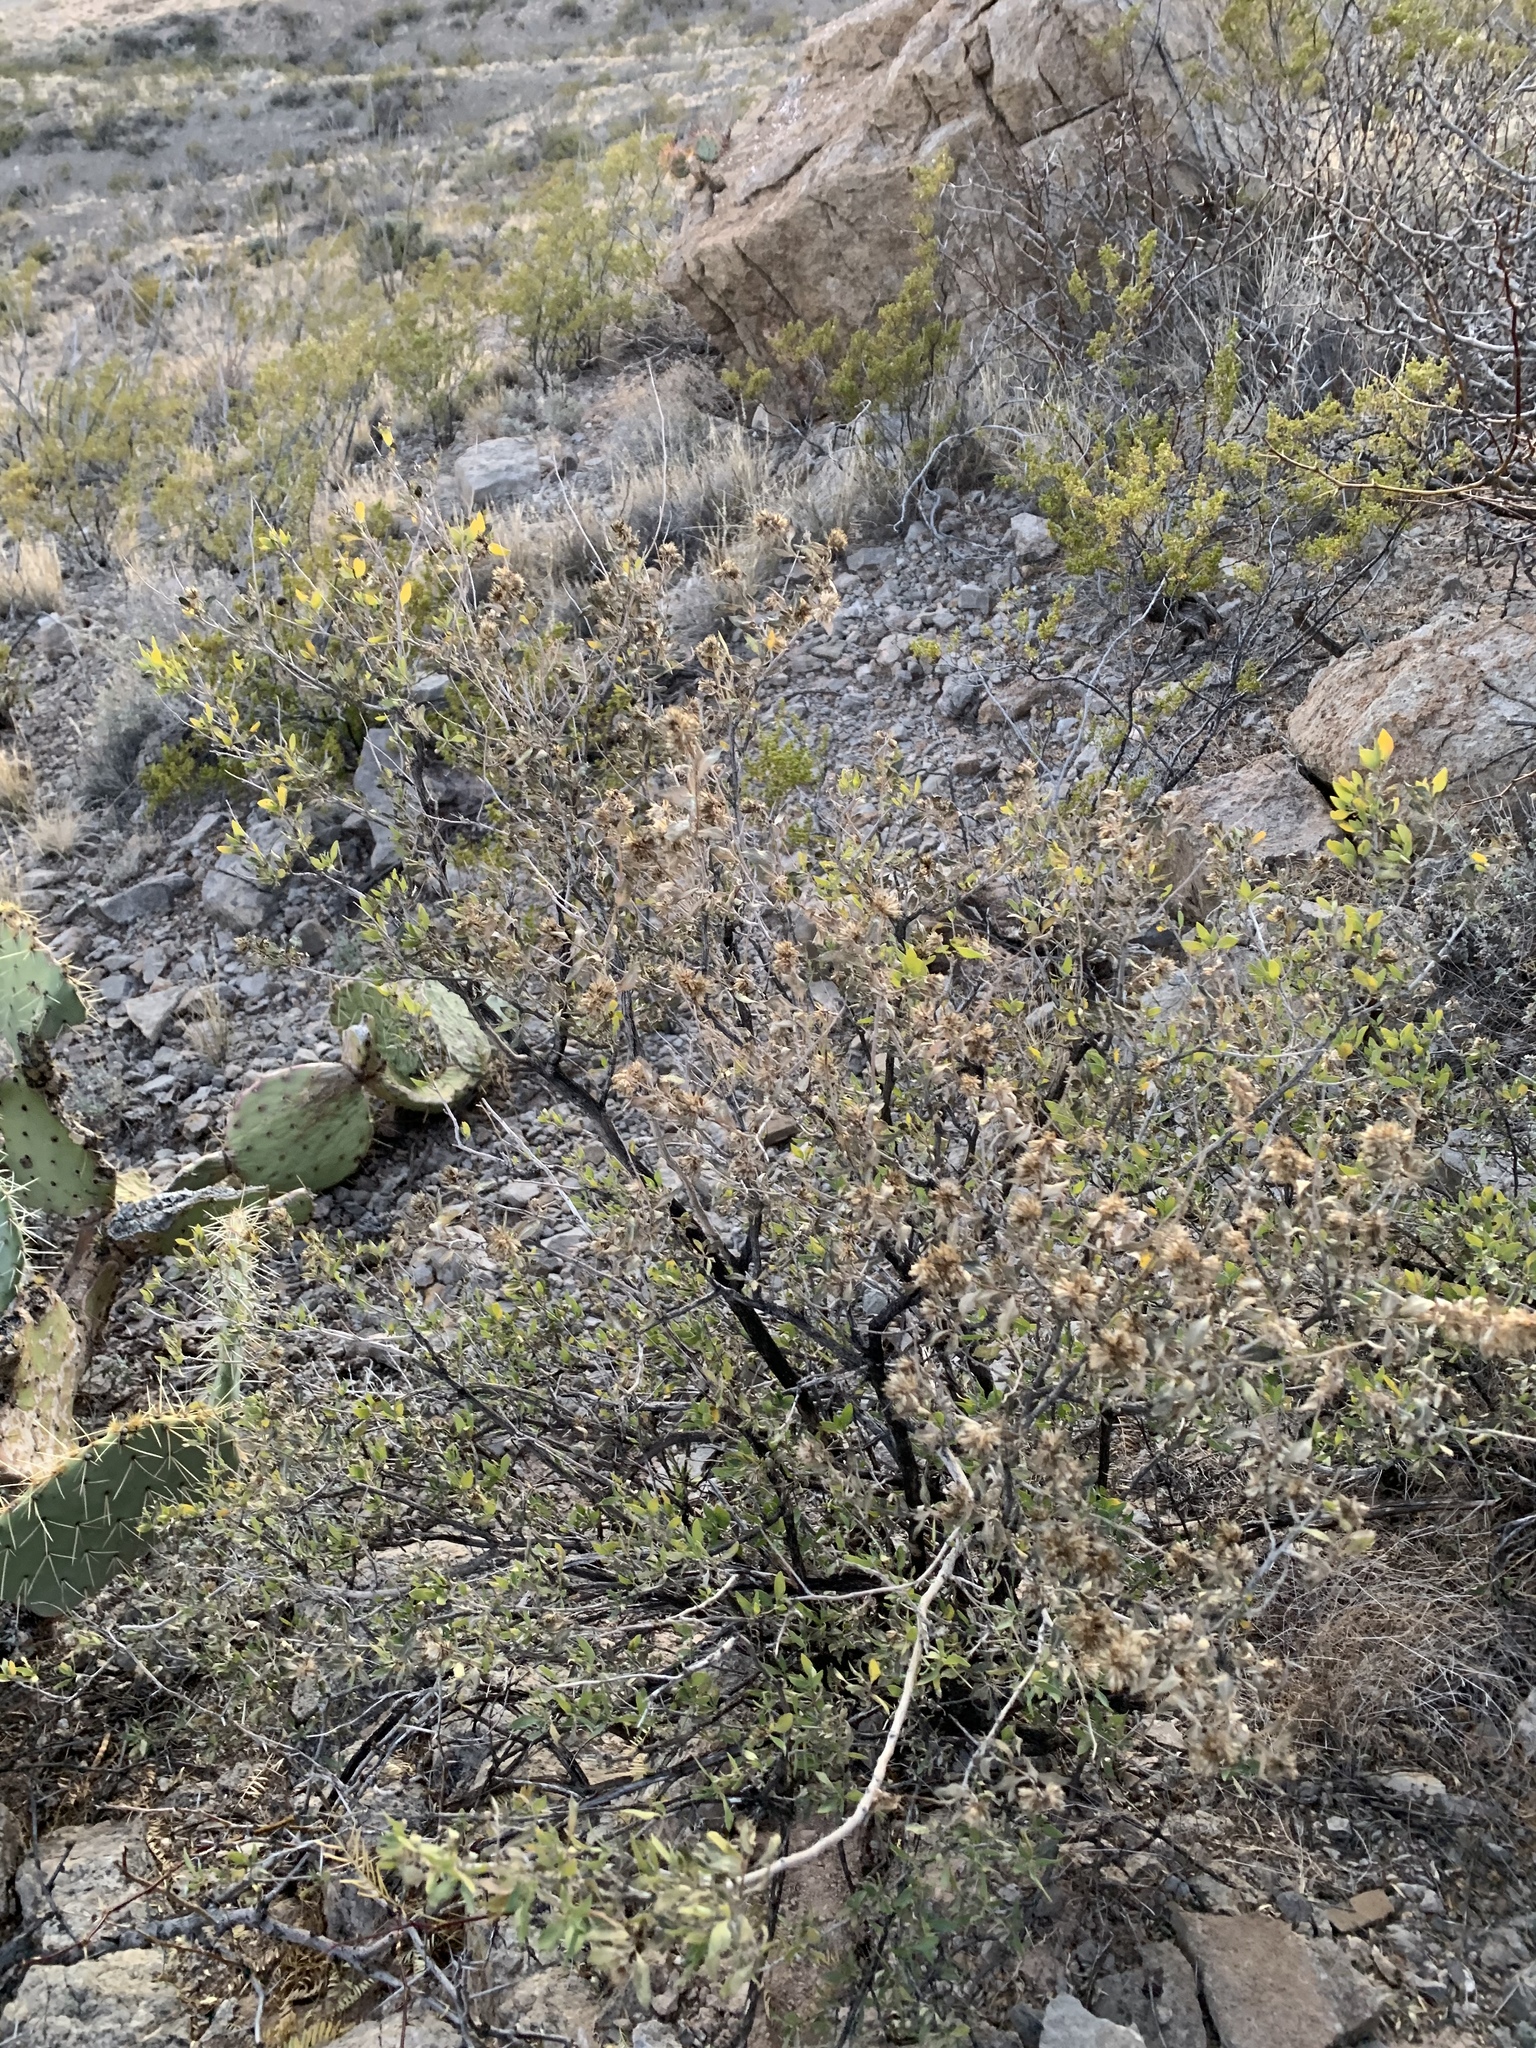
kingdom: Plantae
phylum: Tracheophyta
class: Magnoliopsida
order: Asterales
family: Asteraceae
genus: Flourensia
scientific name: Flourensia cernua
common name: Varnishbush
